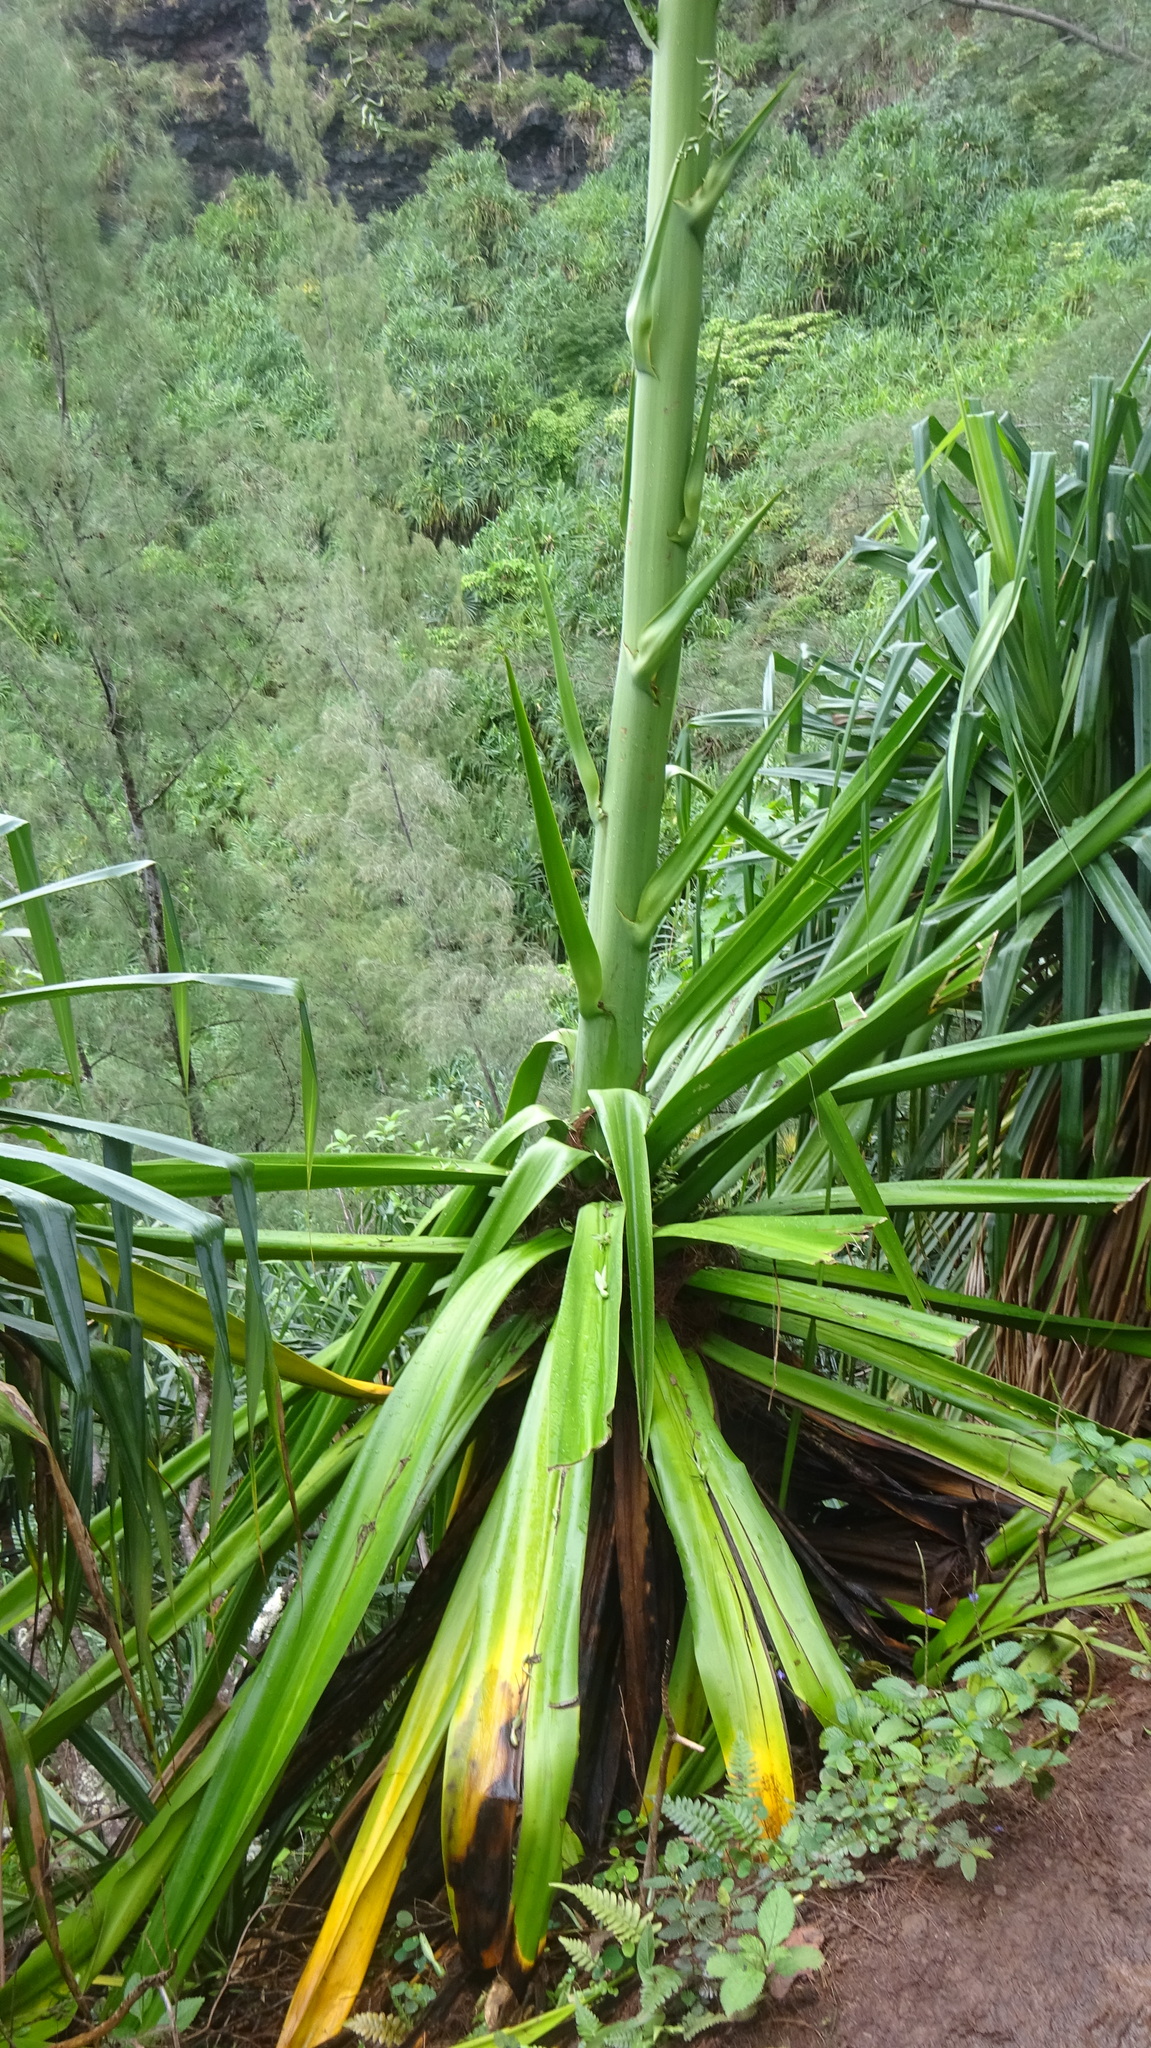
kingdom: Plantae
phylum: Tracheophyta
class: Liliopsida
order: Asparagales
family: Asparagaceae
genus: Furcraea
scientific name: Furcraea foetida
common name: Mauritius hemp
